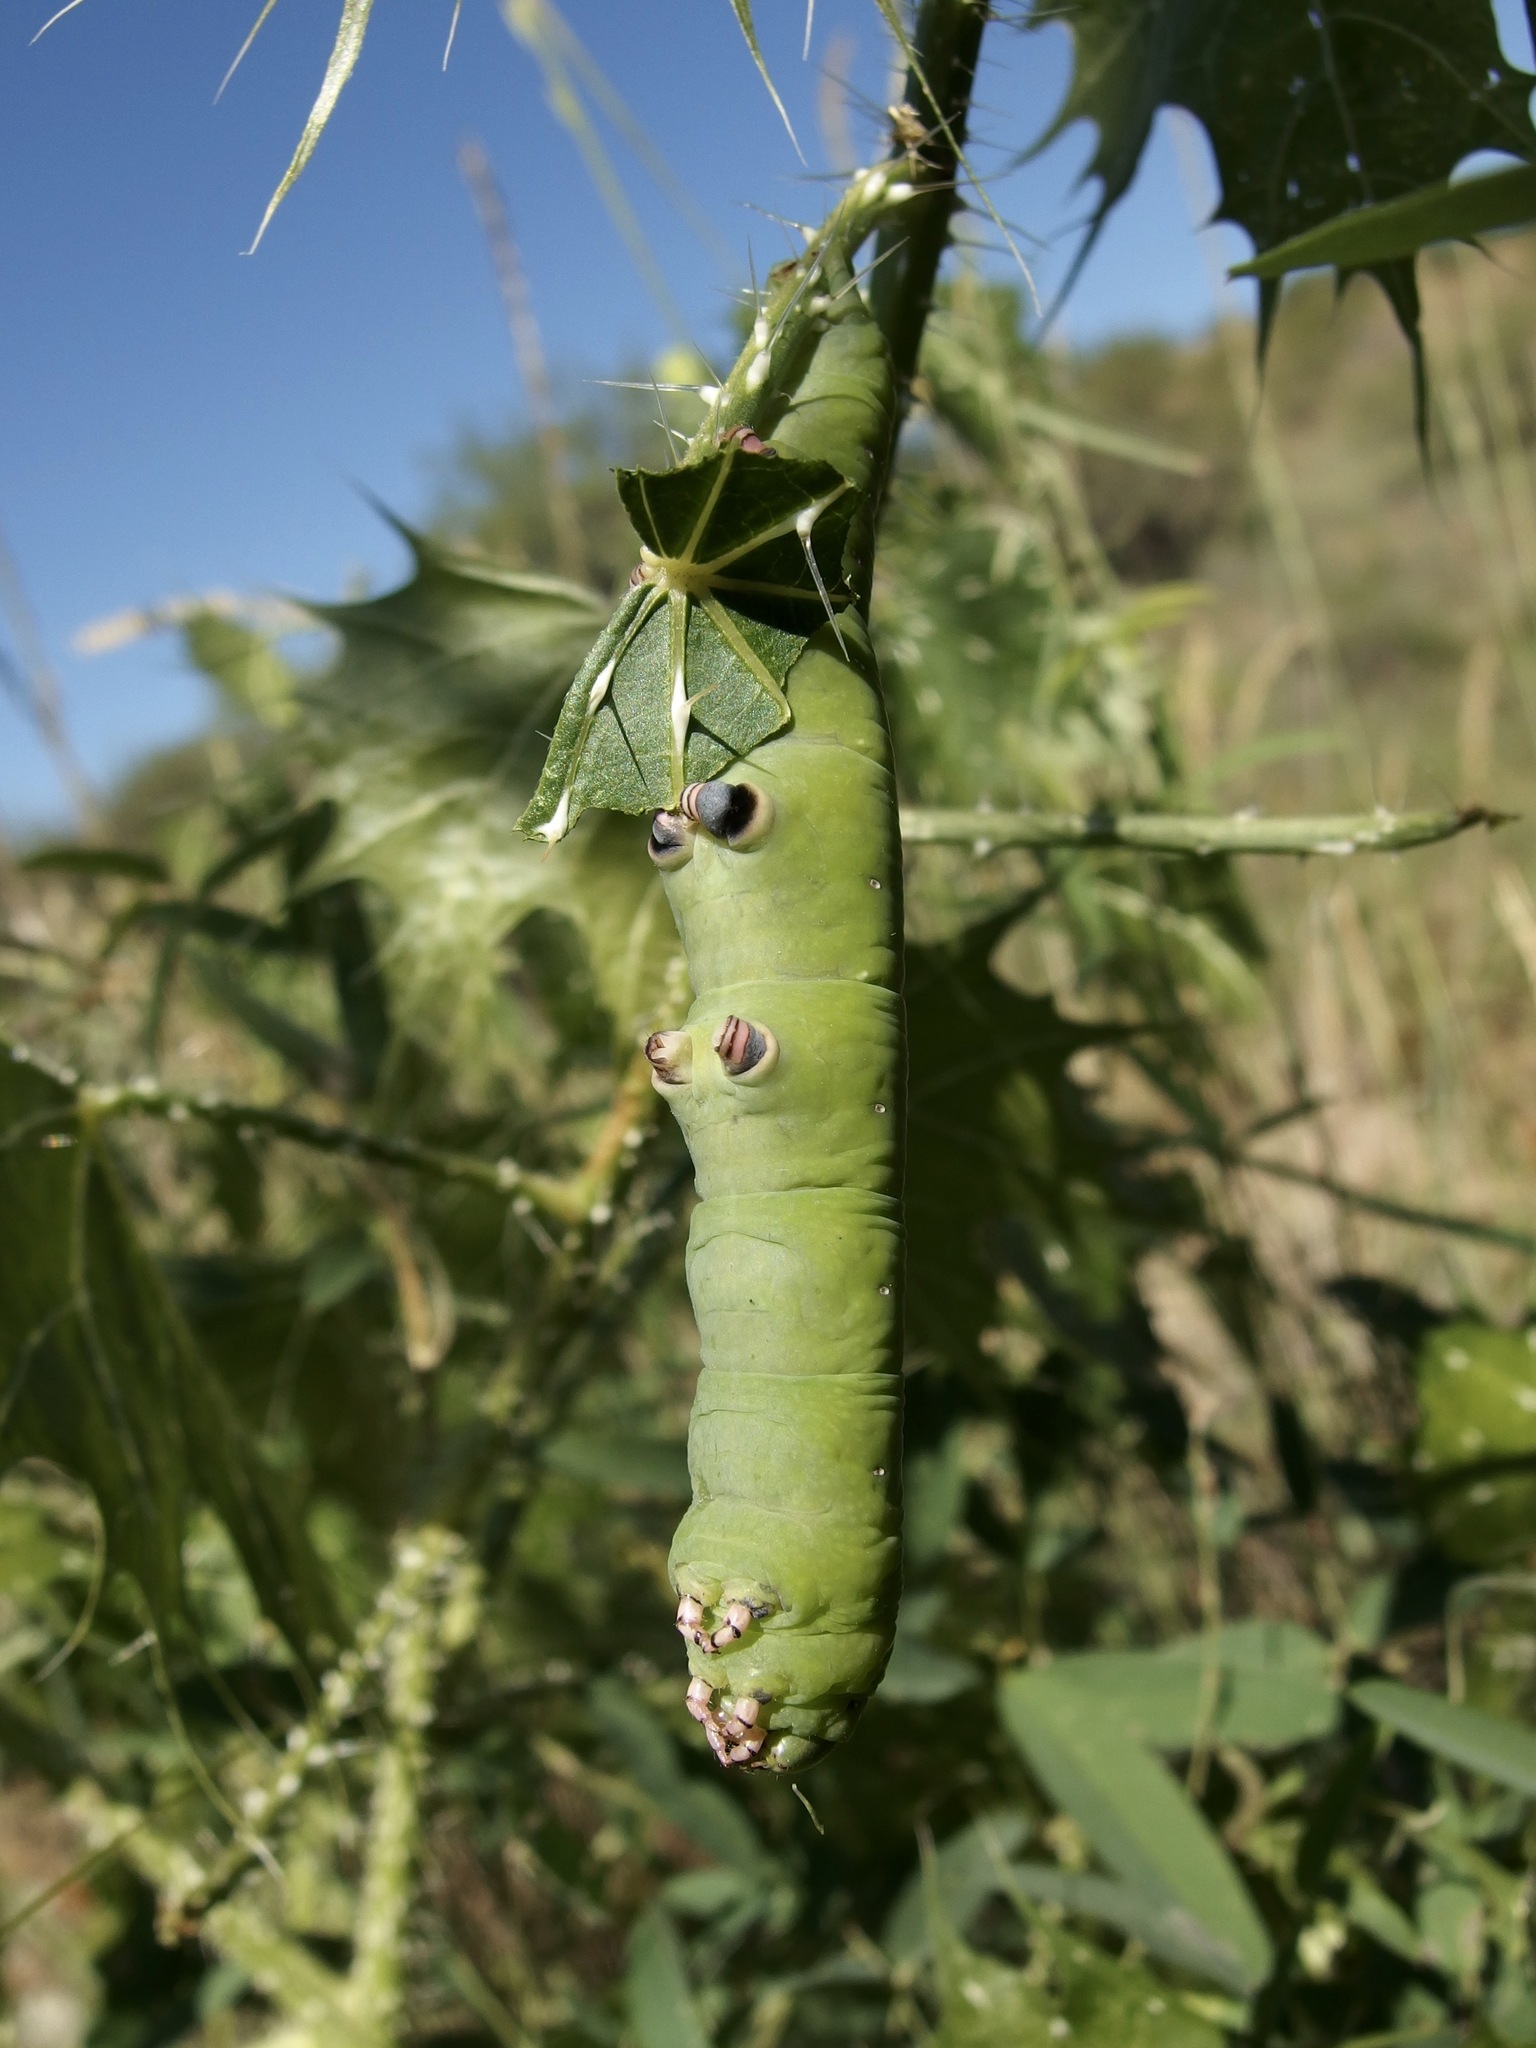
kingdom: Animalia
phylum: Arthropoda
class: Insecta
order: Lepidoptera
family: Sphingidae
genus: Erinnyis
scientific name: Erinnyis ello
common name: Ello sphinx
